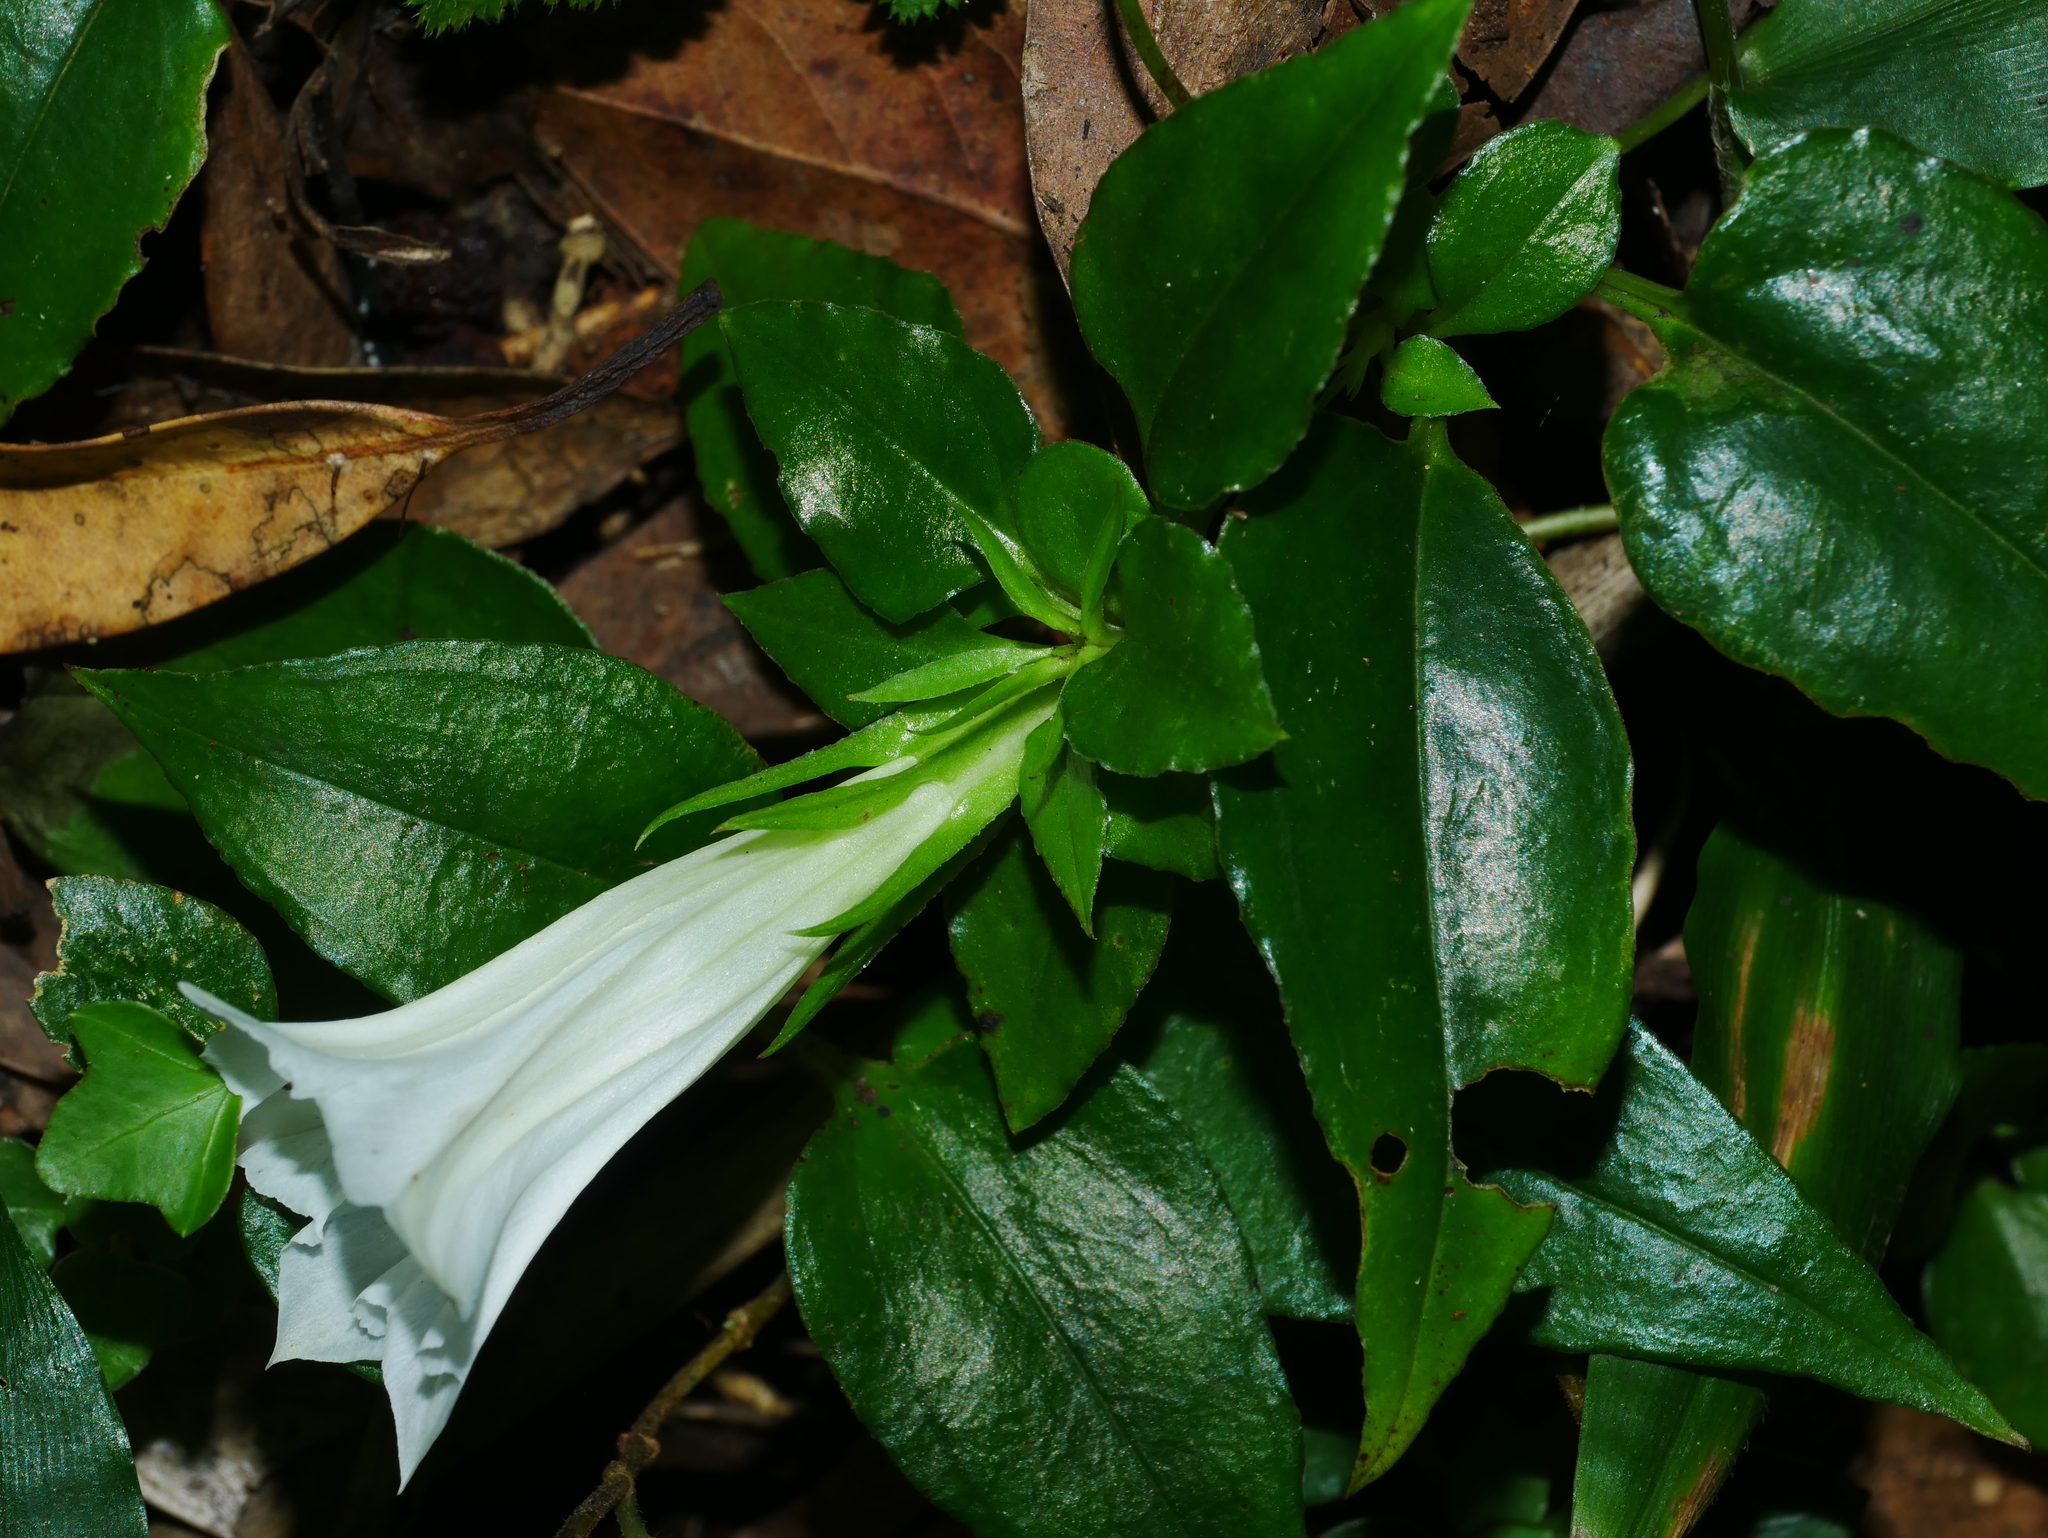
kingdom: Plantae
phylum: Tracheophyta
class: Magnoliopsida
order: Gentianales
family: Gentianaceae
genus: Tripterospermum
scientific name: Tripterospermum alutaceifolium
